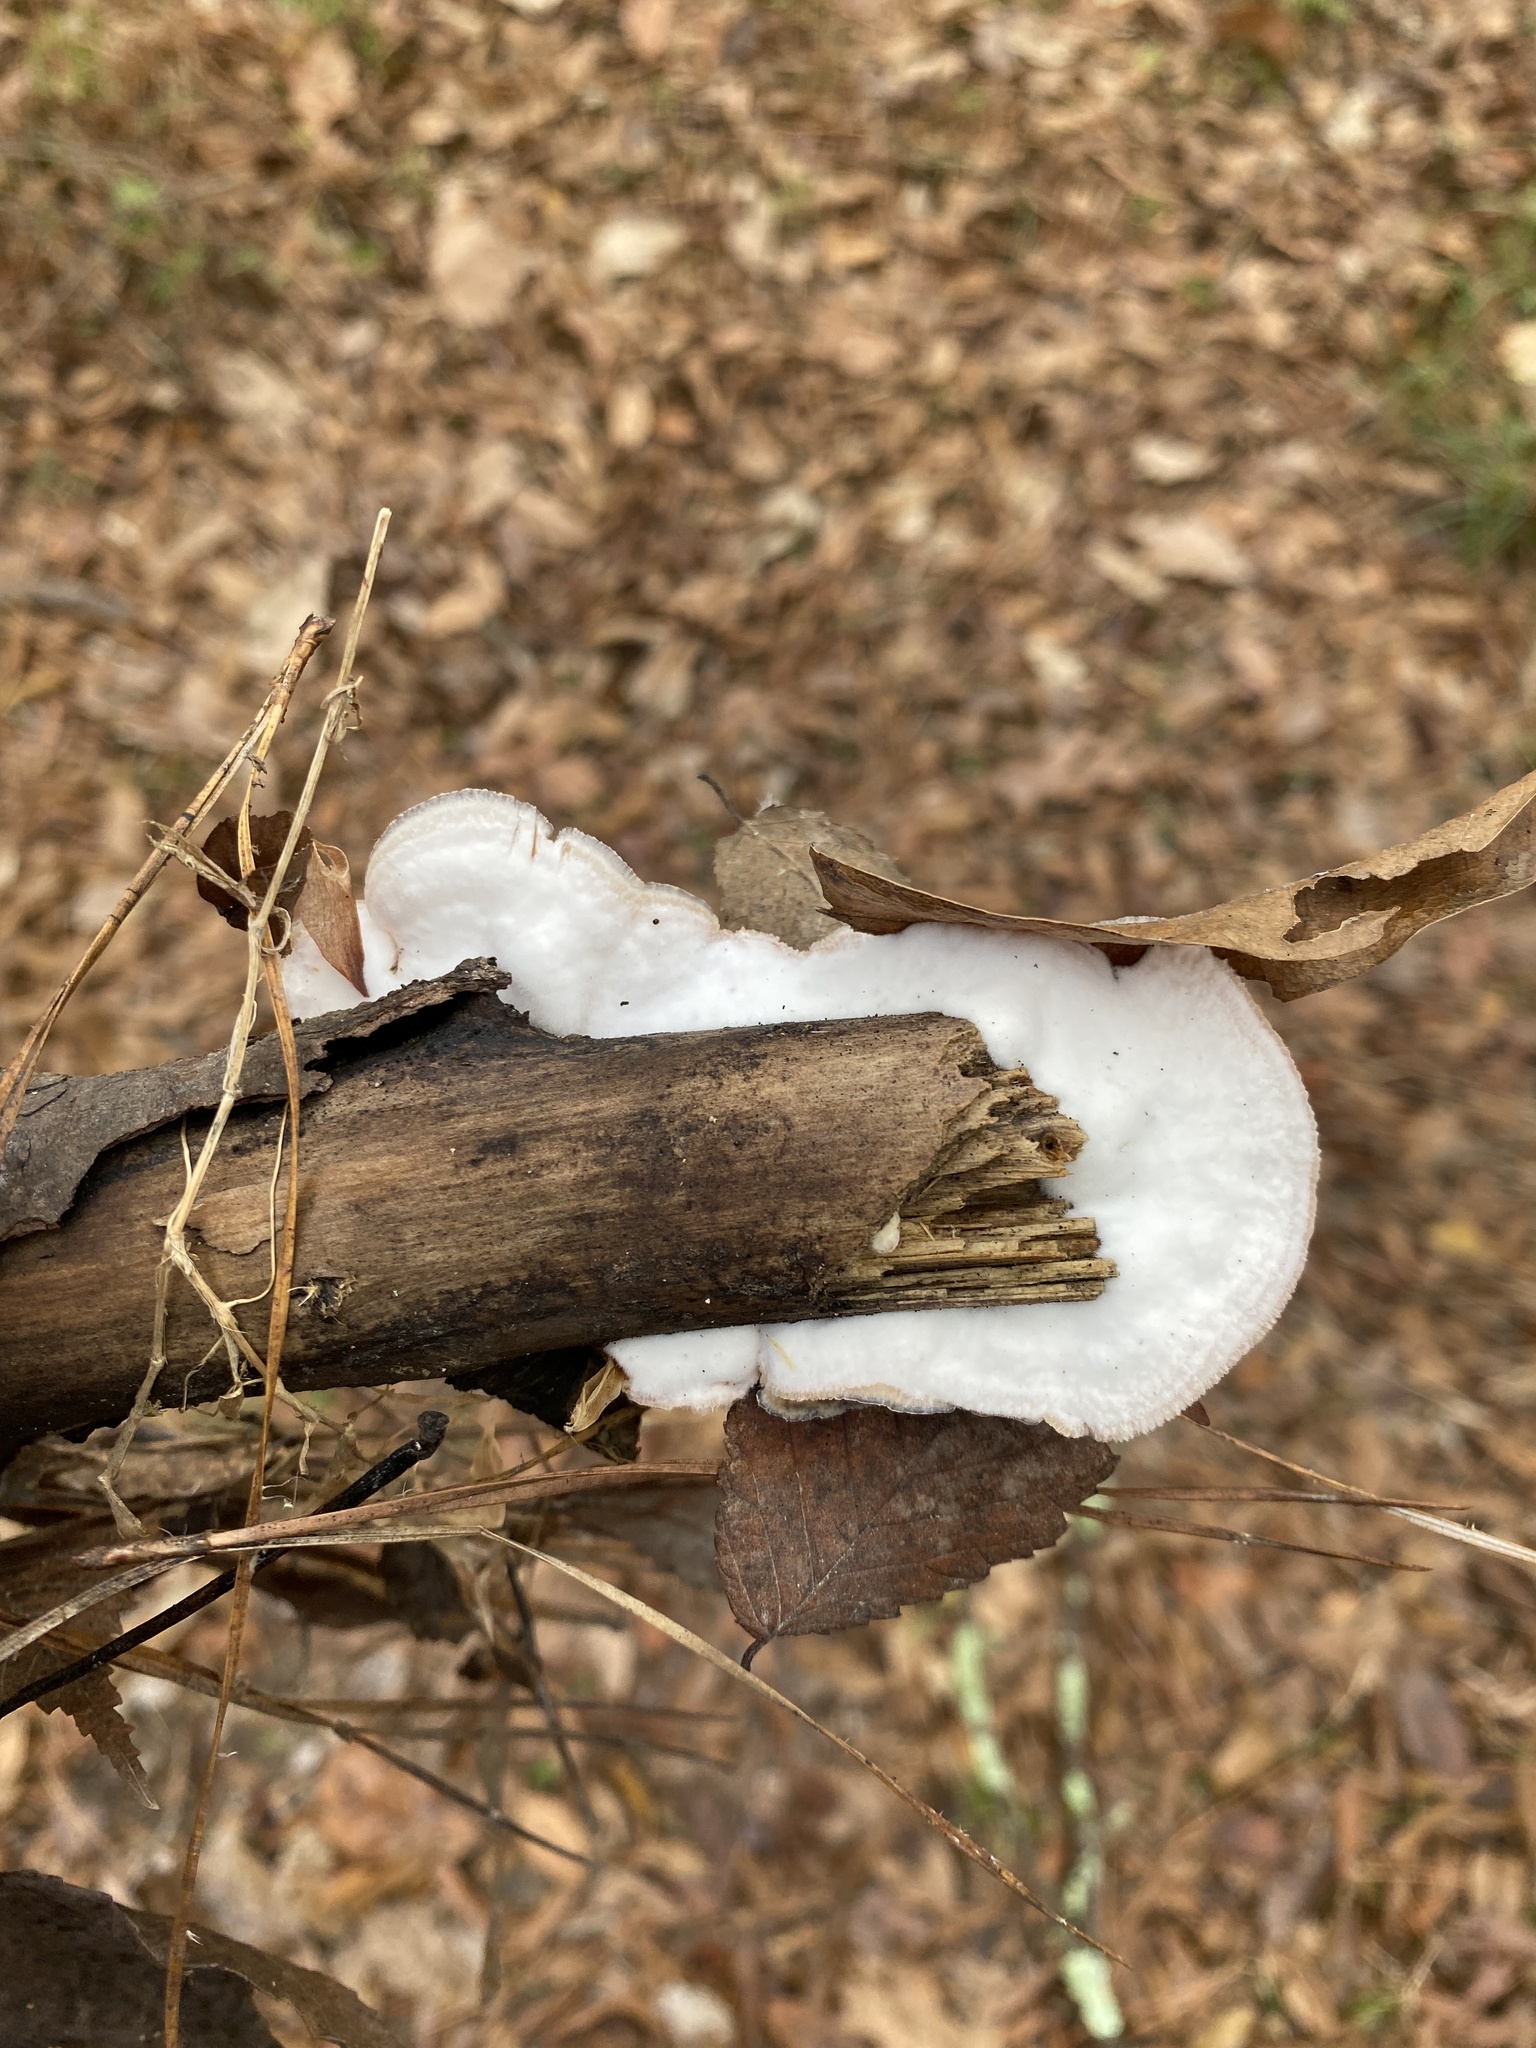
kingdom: Fungi
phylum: Basidiomycota
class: Agaricomycetes
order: Polyporales
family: Meruliaceae
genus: Phlebia
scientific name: Phlebia tremellosa
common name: Jelly rot
